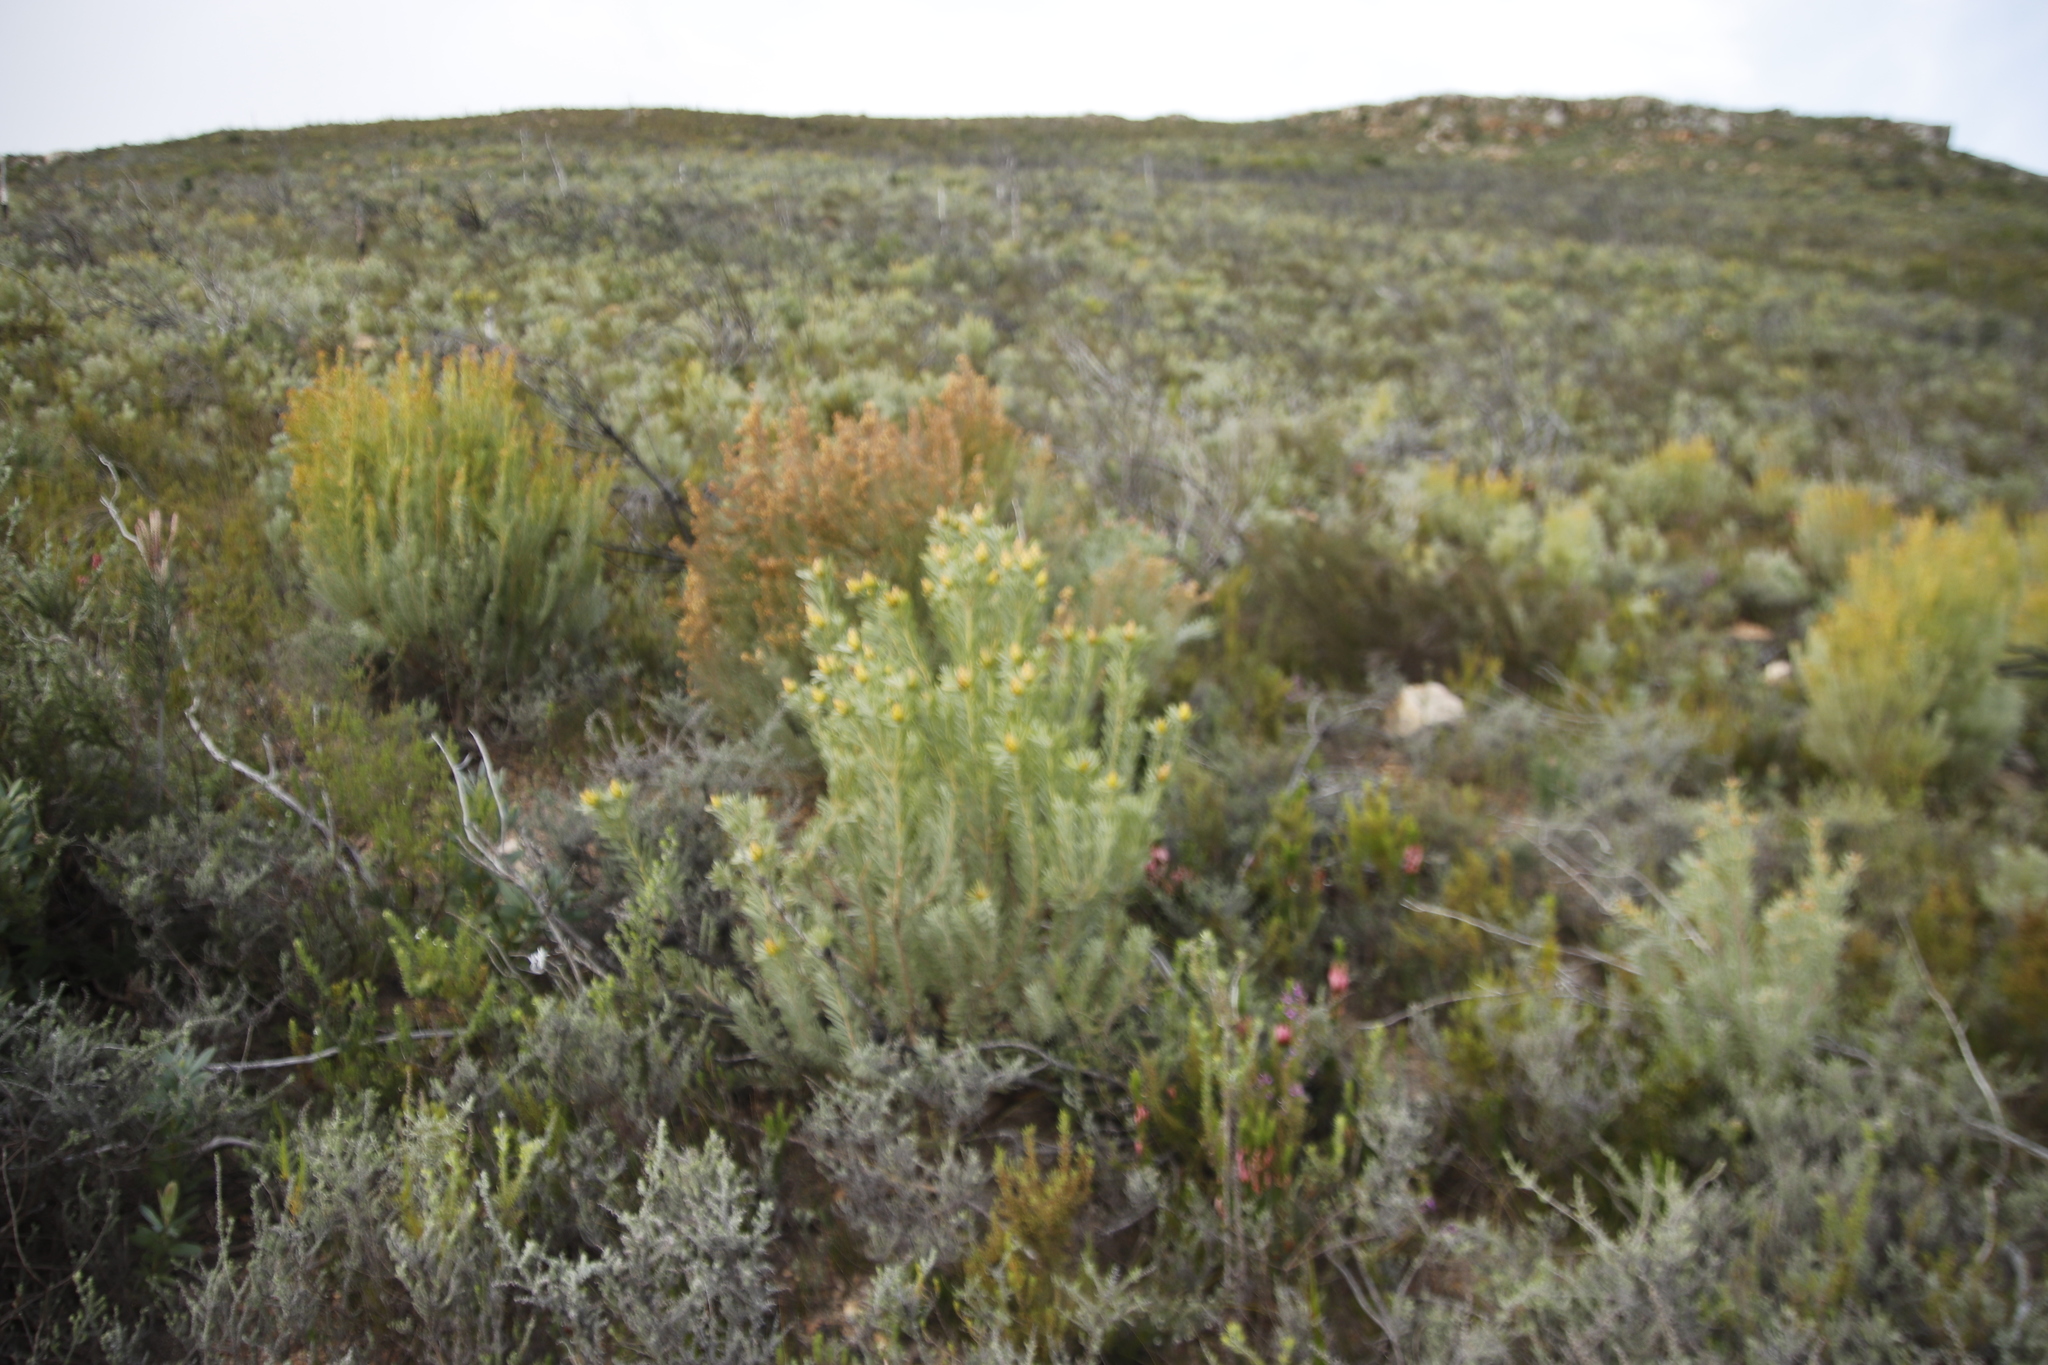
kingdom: Plantae
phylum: Tracheophyta
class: Magnoliopsida
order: Proteales
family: Proteaceae
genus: Leucadendron
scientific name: Leucadendron rubrum
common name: Spinning top
